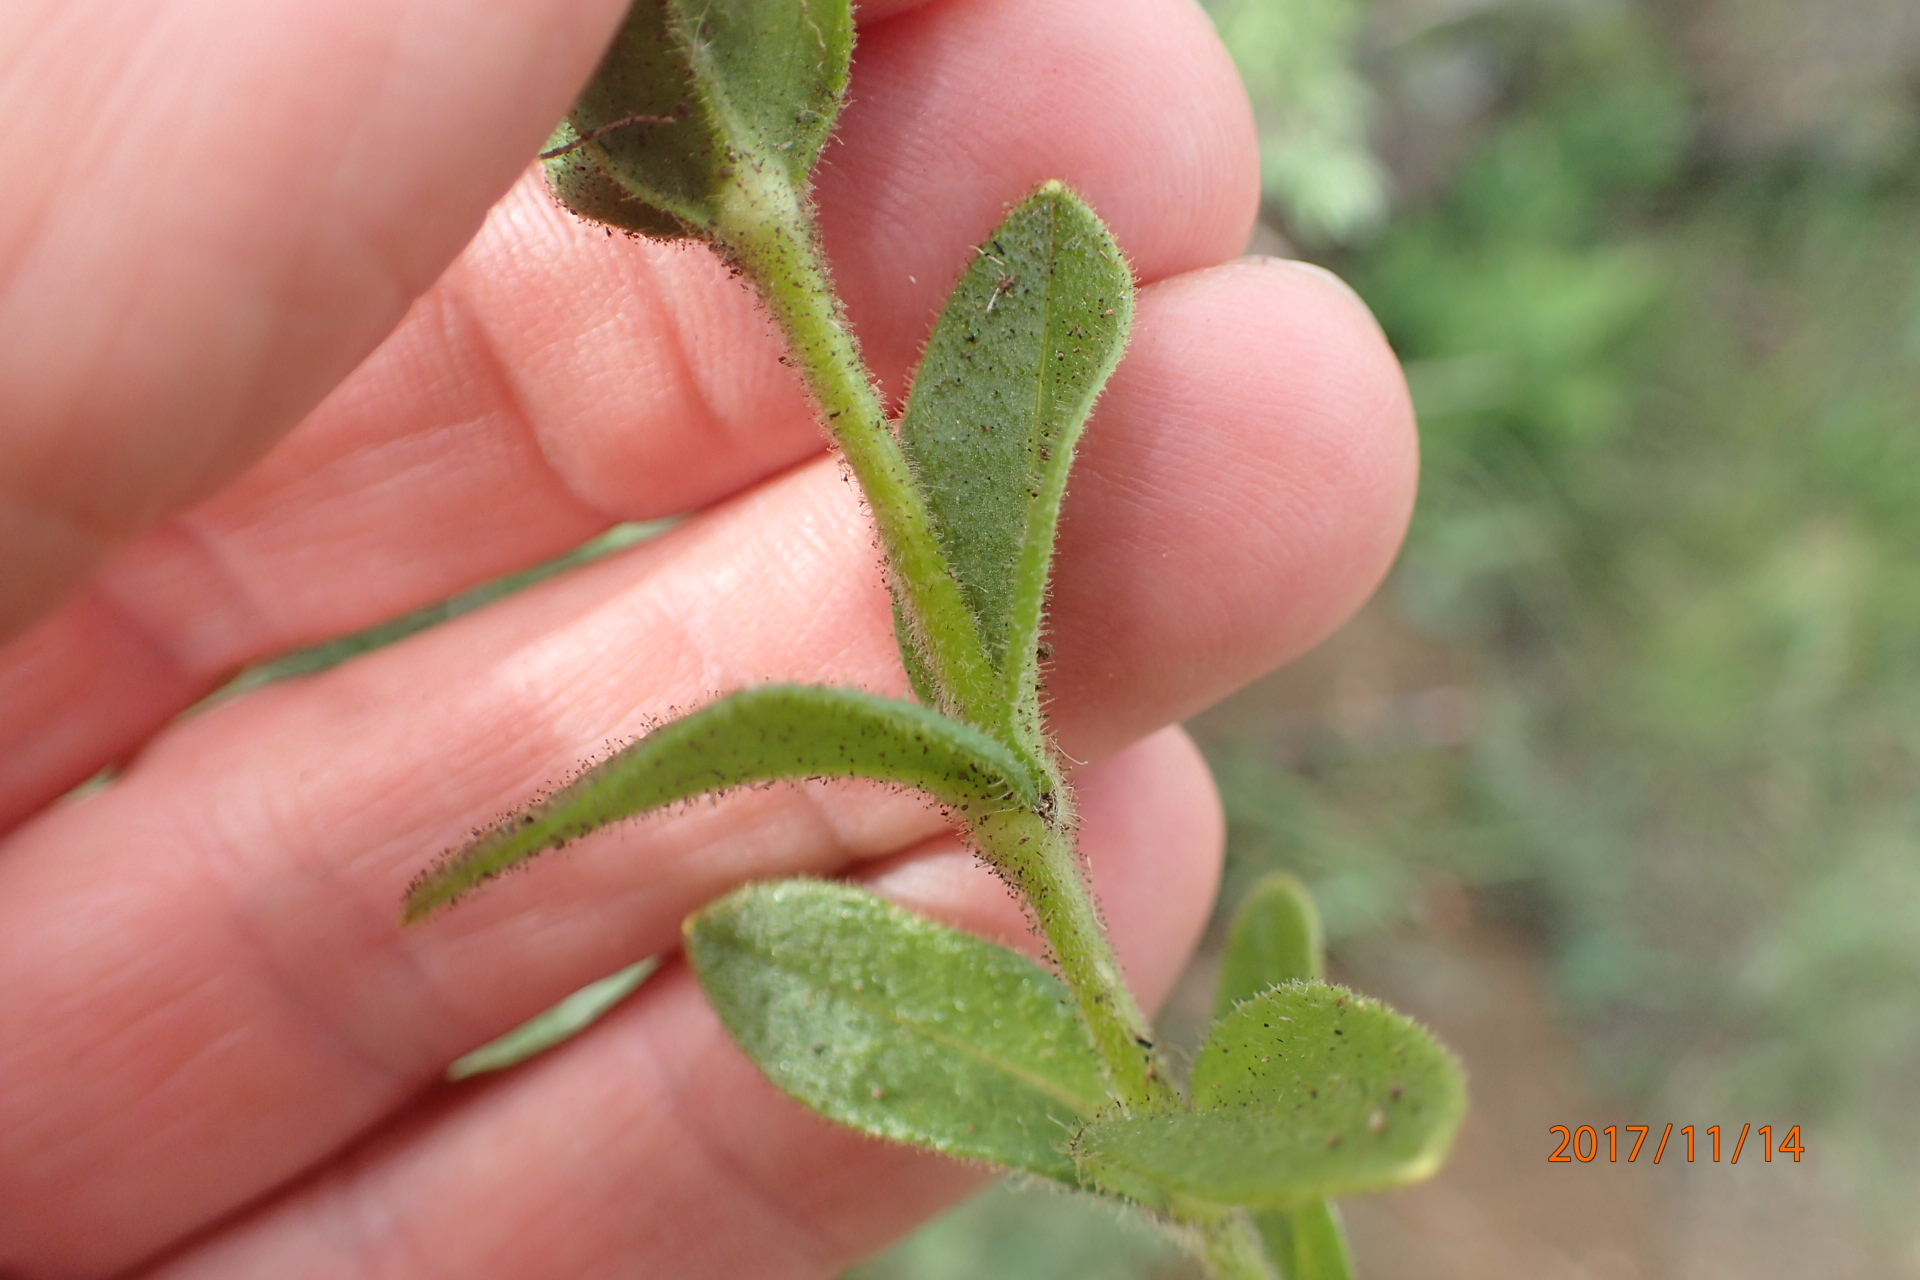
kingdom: Plantae
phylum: Tracheophyta
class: Magnoliopsida
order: Caryophyllales
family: Caryophyllaceae
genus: Cerastium
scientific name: Cerastium arabidis
